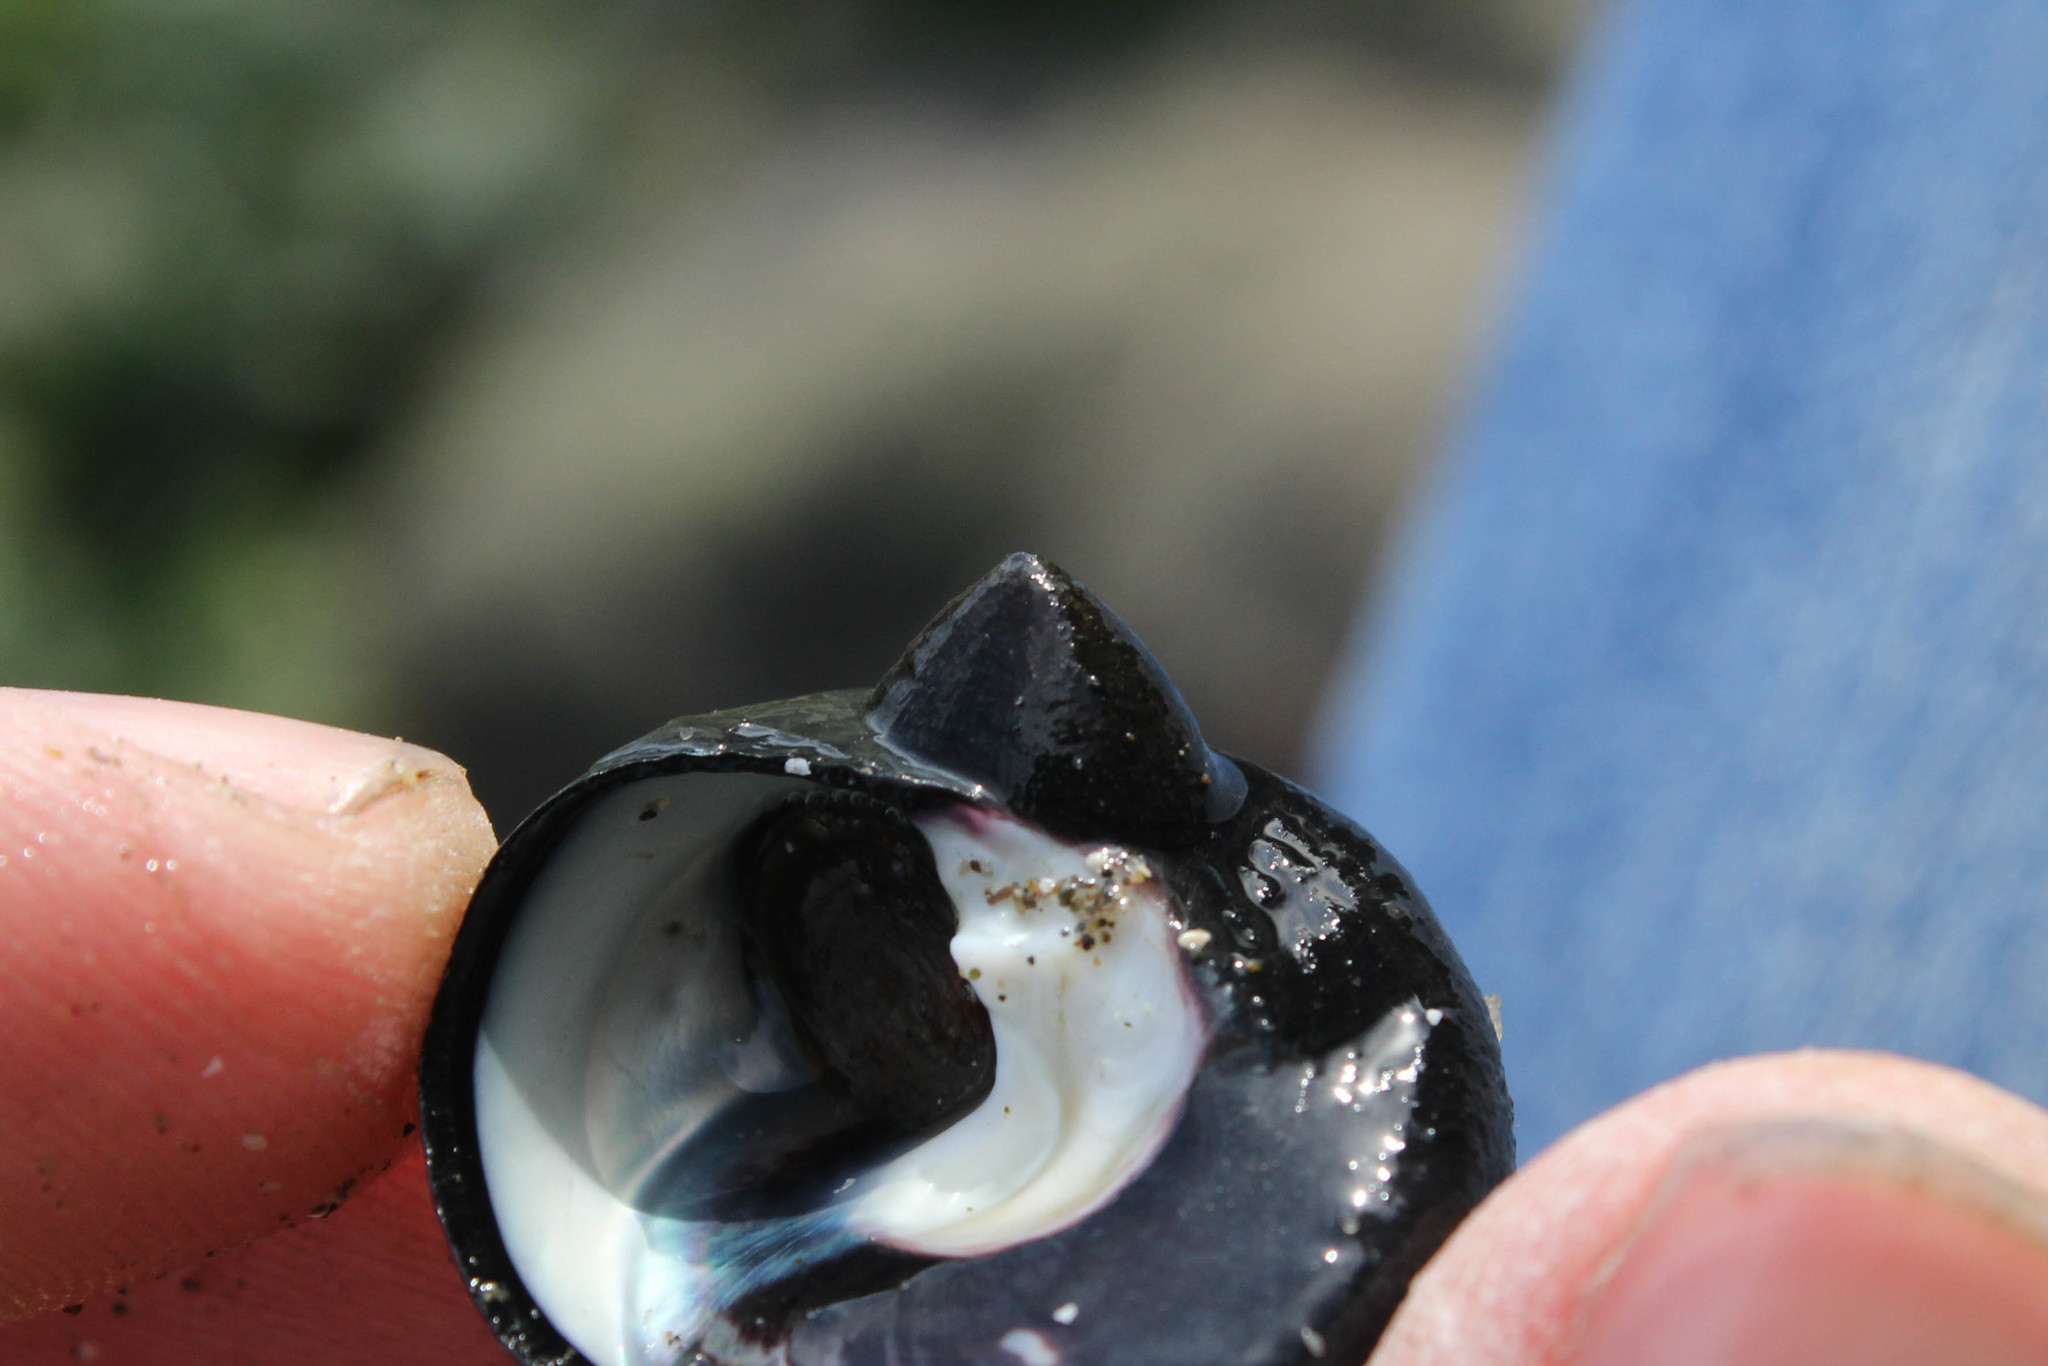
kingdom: Animalia
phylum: Mollusca
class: Gastropoda
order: Trochida
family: Tegulidae
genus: Tegula
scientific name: Tegula funebralis
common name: Black tegula
